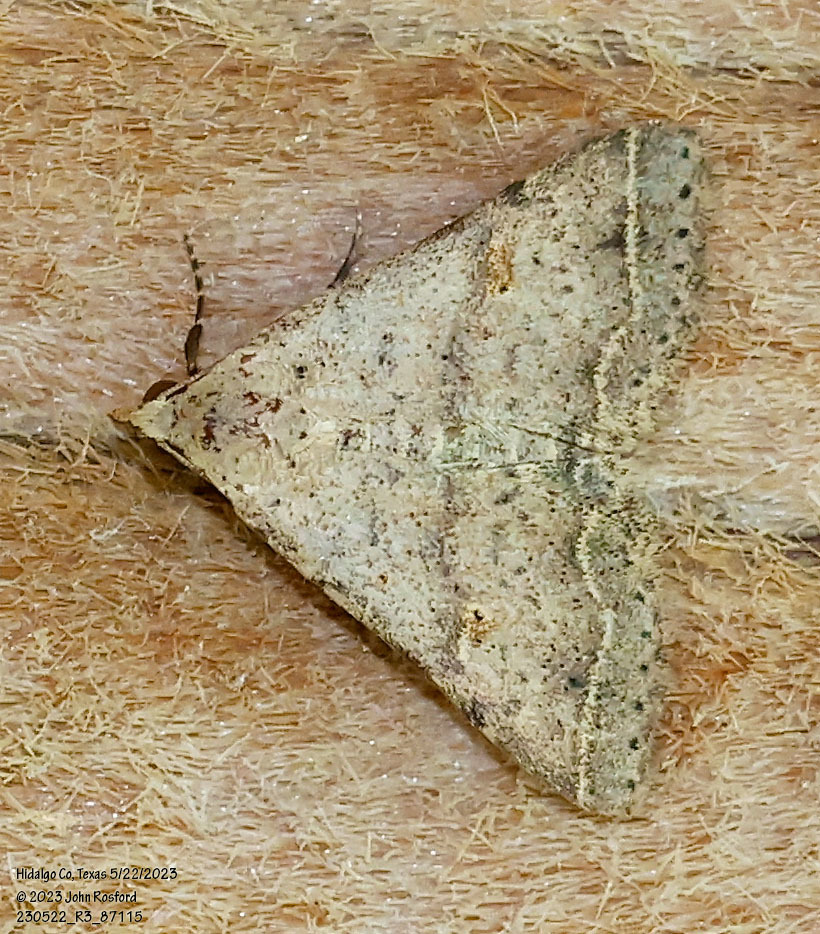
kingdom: Animalia
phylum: Arthropoda
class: Insecta
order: Lepidoptera
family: Erebidae
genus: Bleptina
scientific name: Bleptina caradrinalis
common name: Bent-winged owlet
